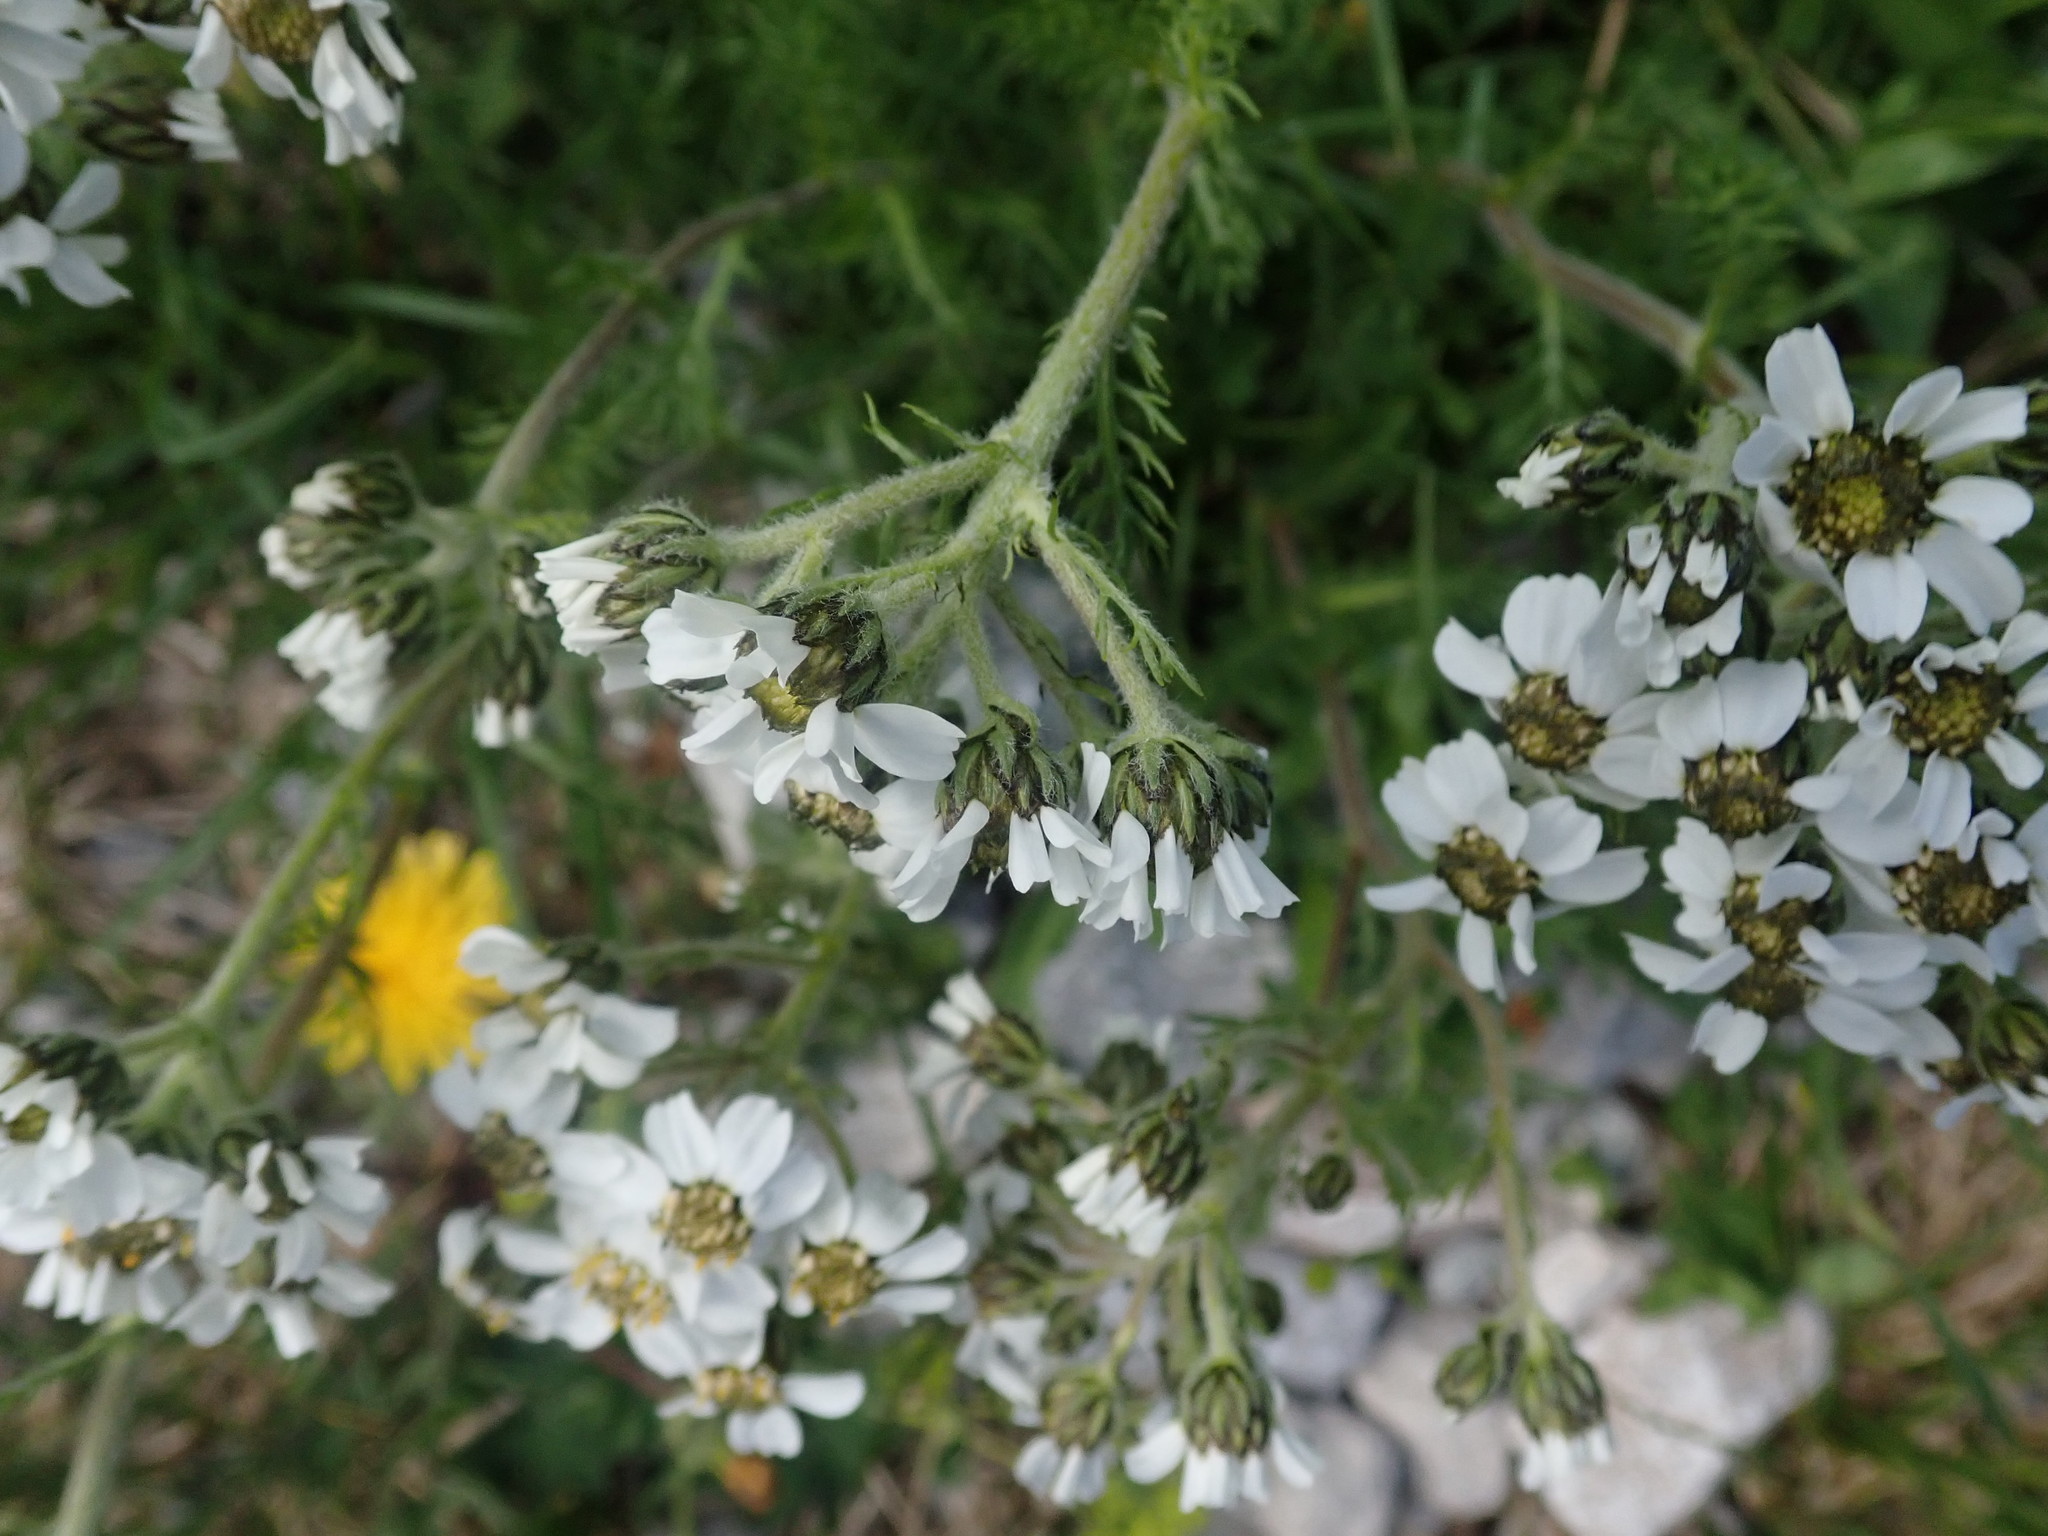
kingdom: Plantae
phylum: Tracheophyta
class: Magnoliopsida
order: Asterales
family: Asteraceae
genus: Achillea
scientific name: Achillea atrata
